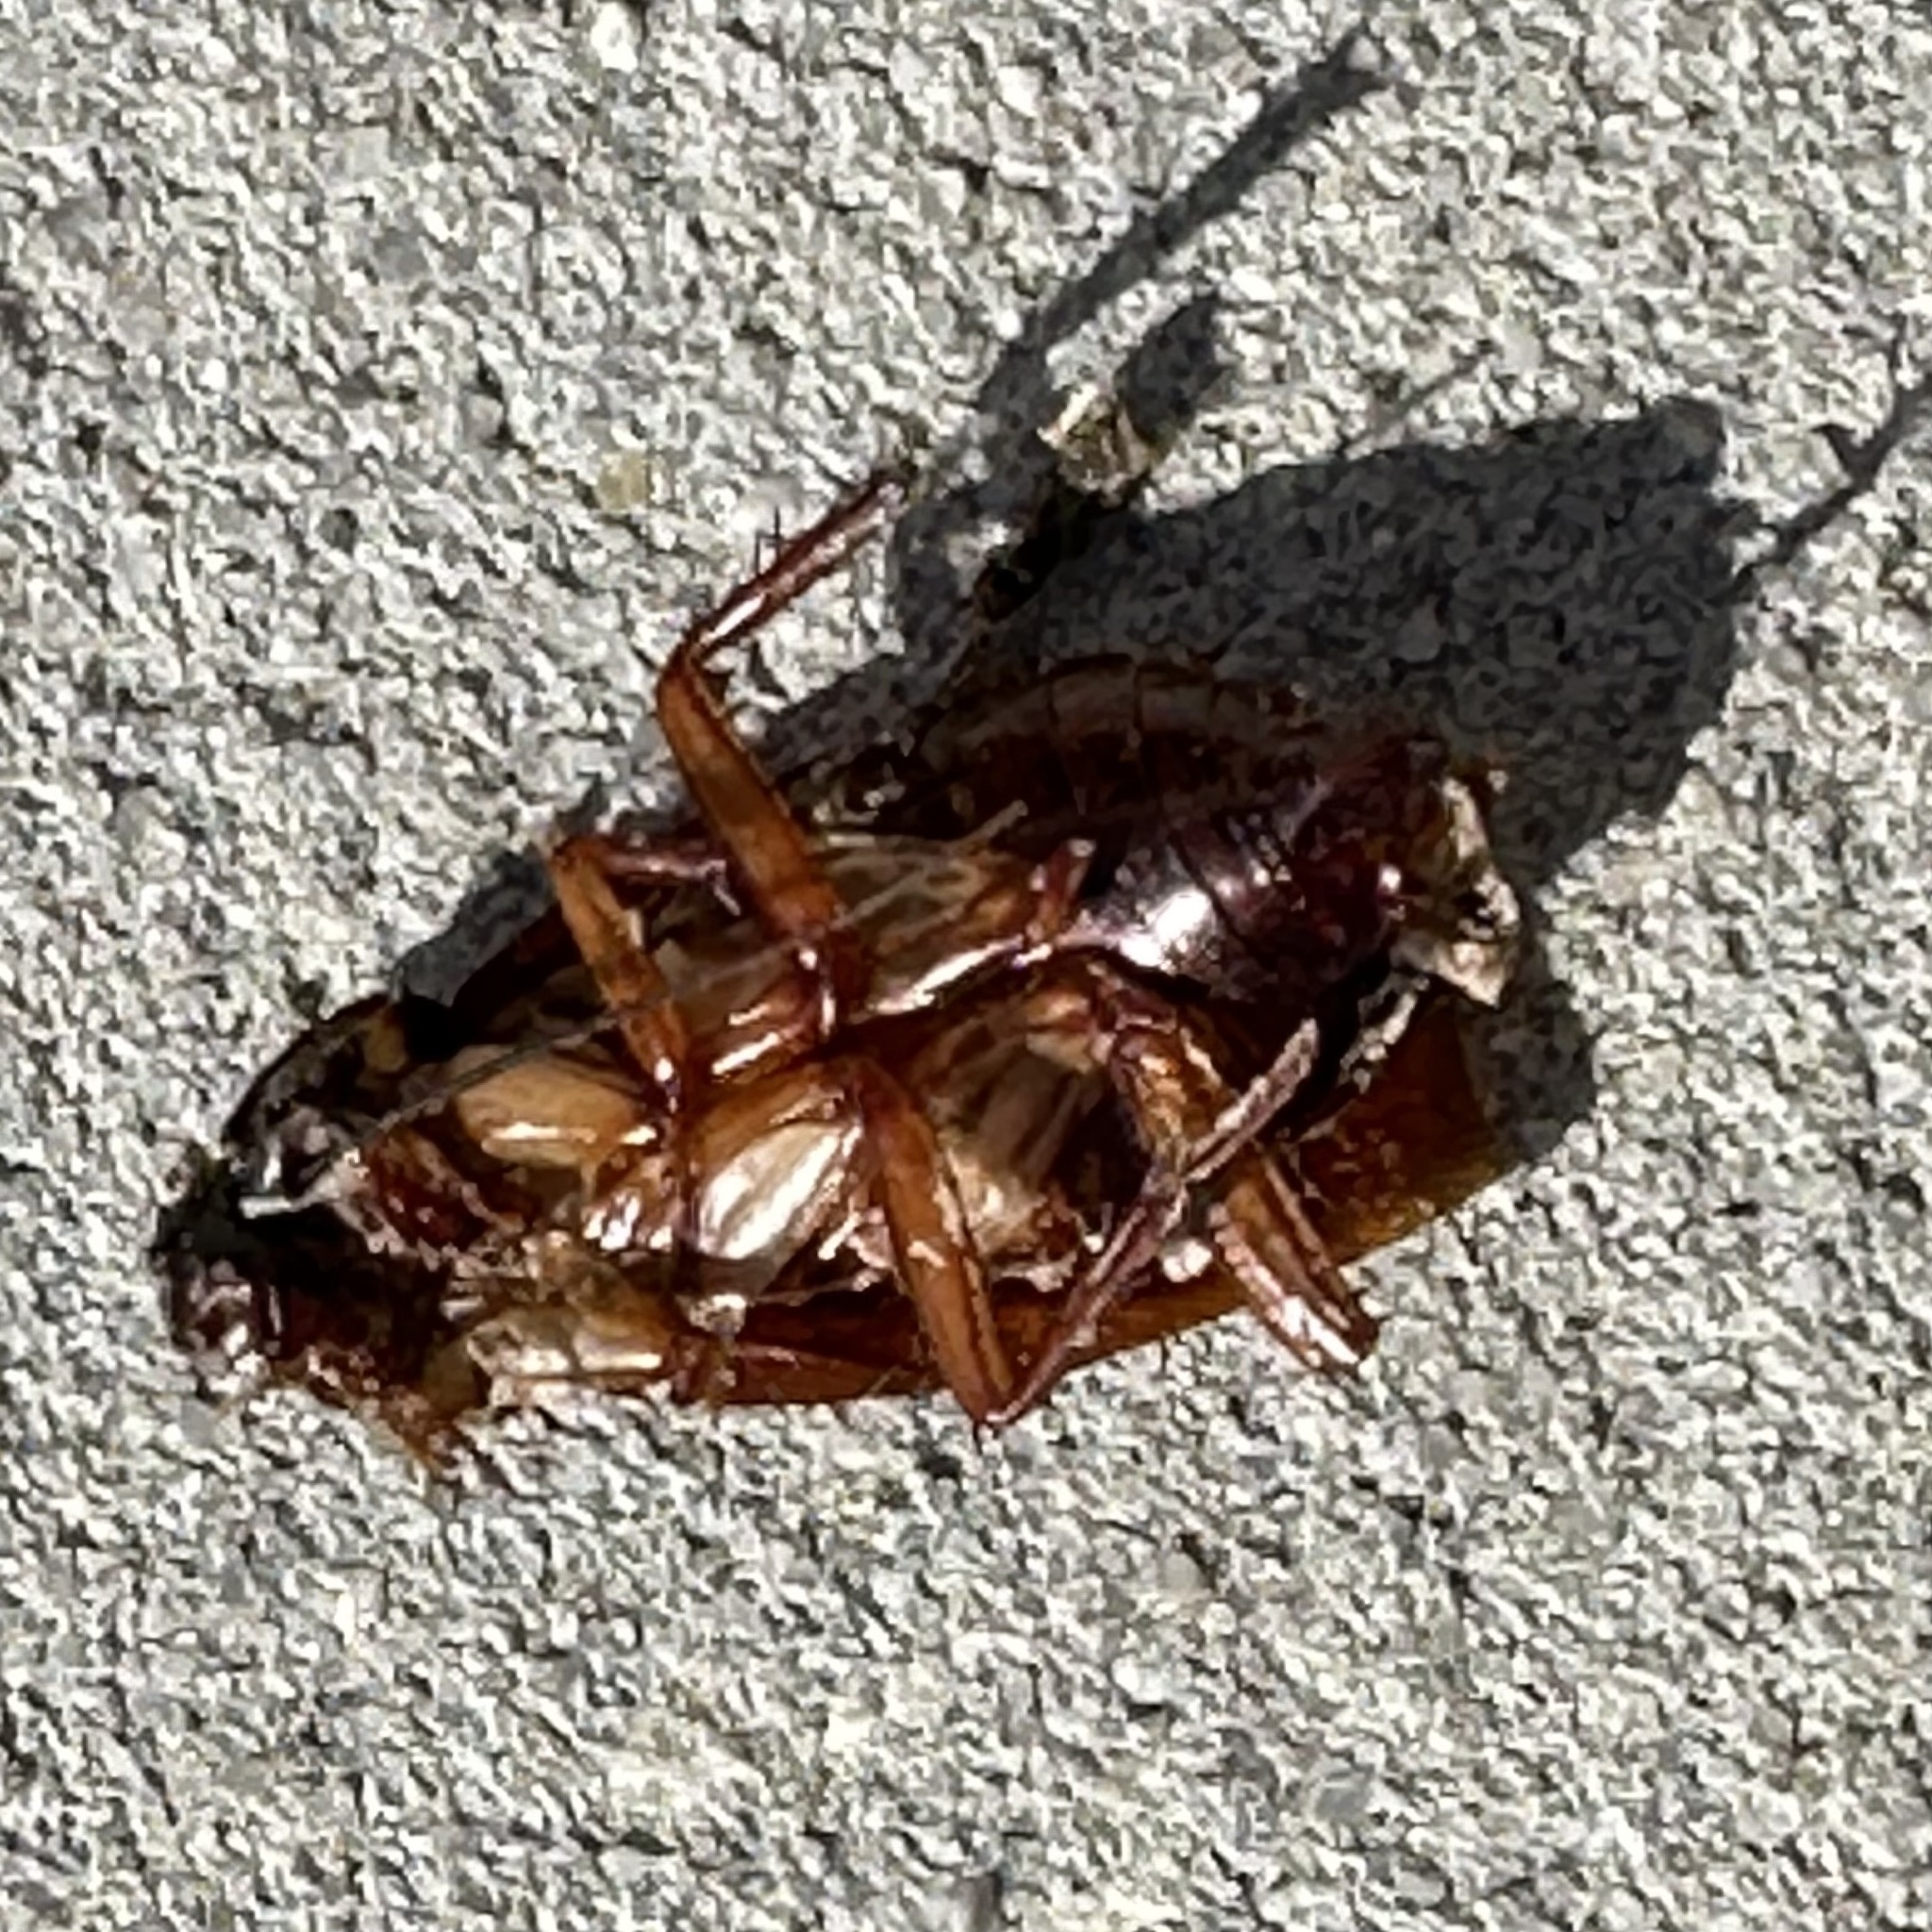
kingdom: Animalia
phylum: Arthropoda
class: Insecta
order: Blattodea
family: Blattidae
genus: Periplaneta
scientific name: Periplaneta americana
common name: American cockroach
